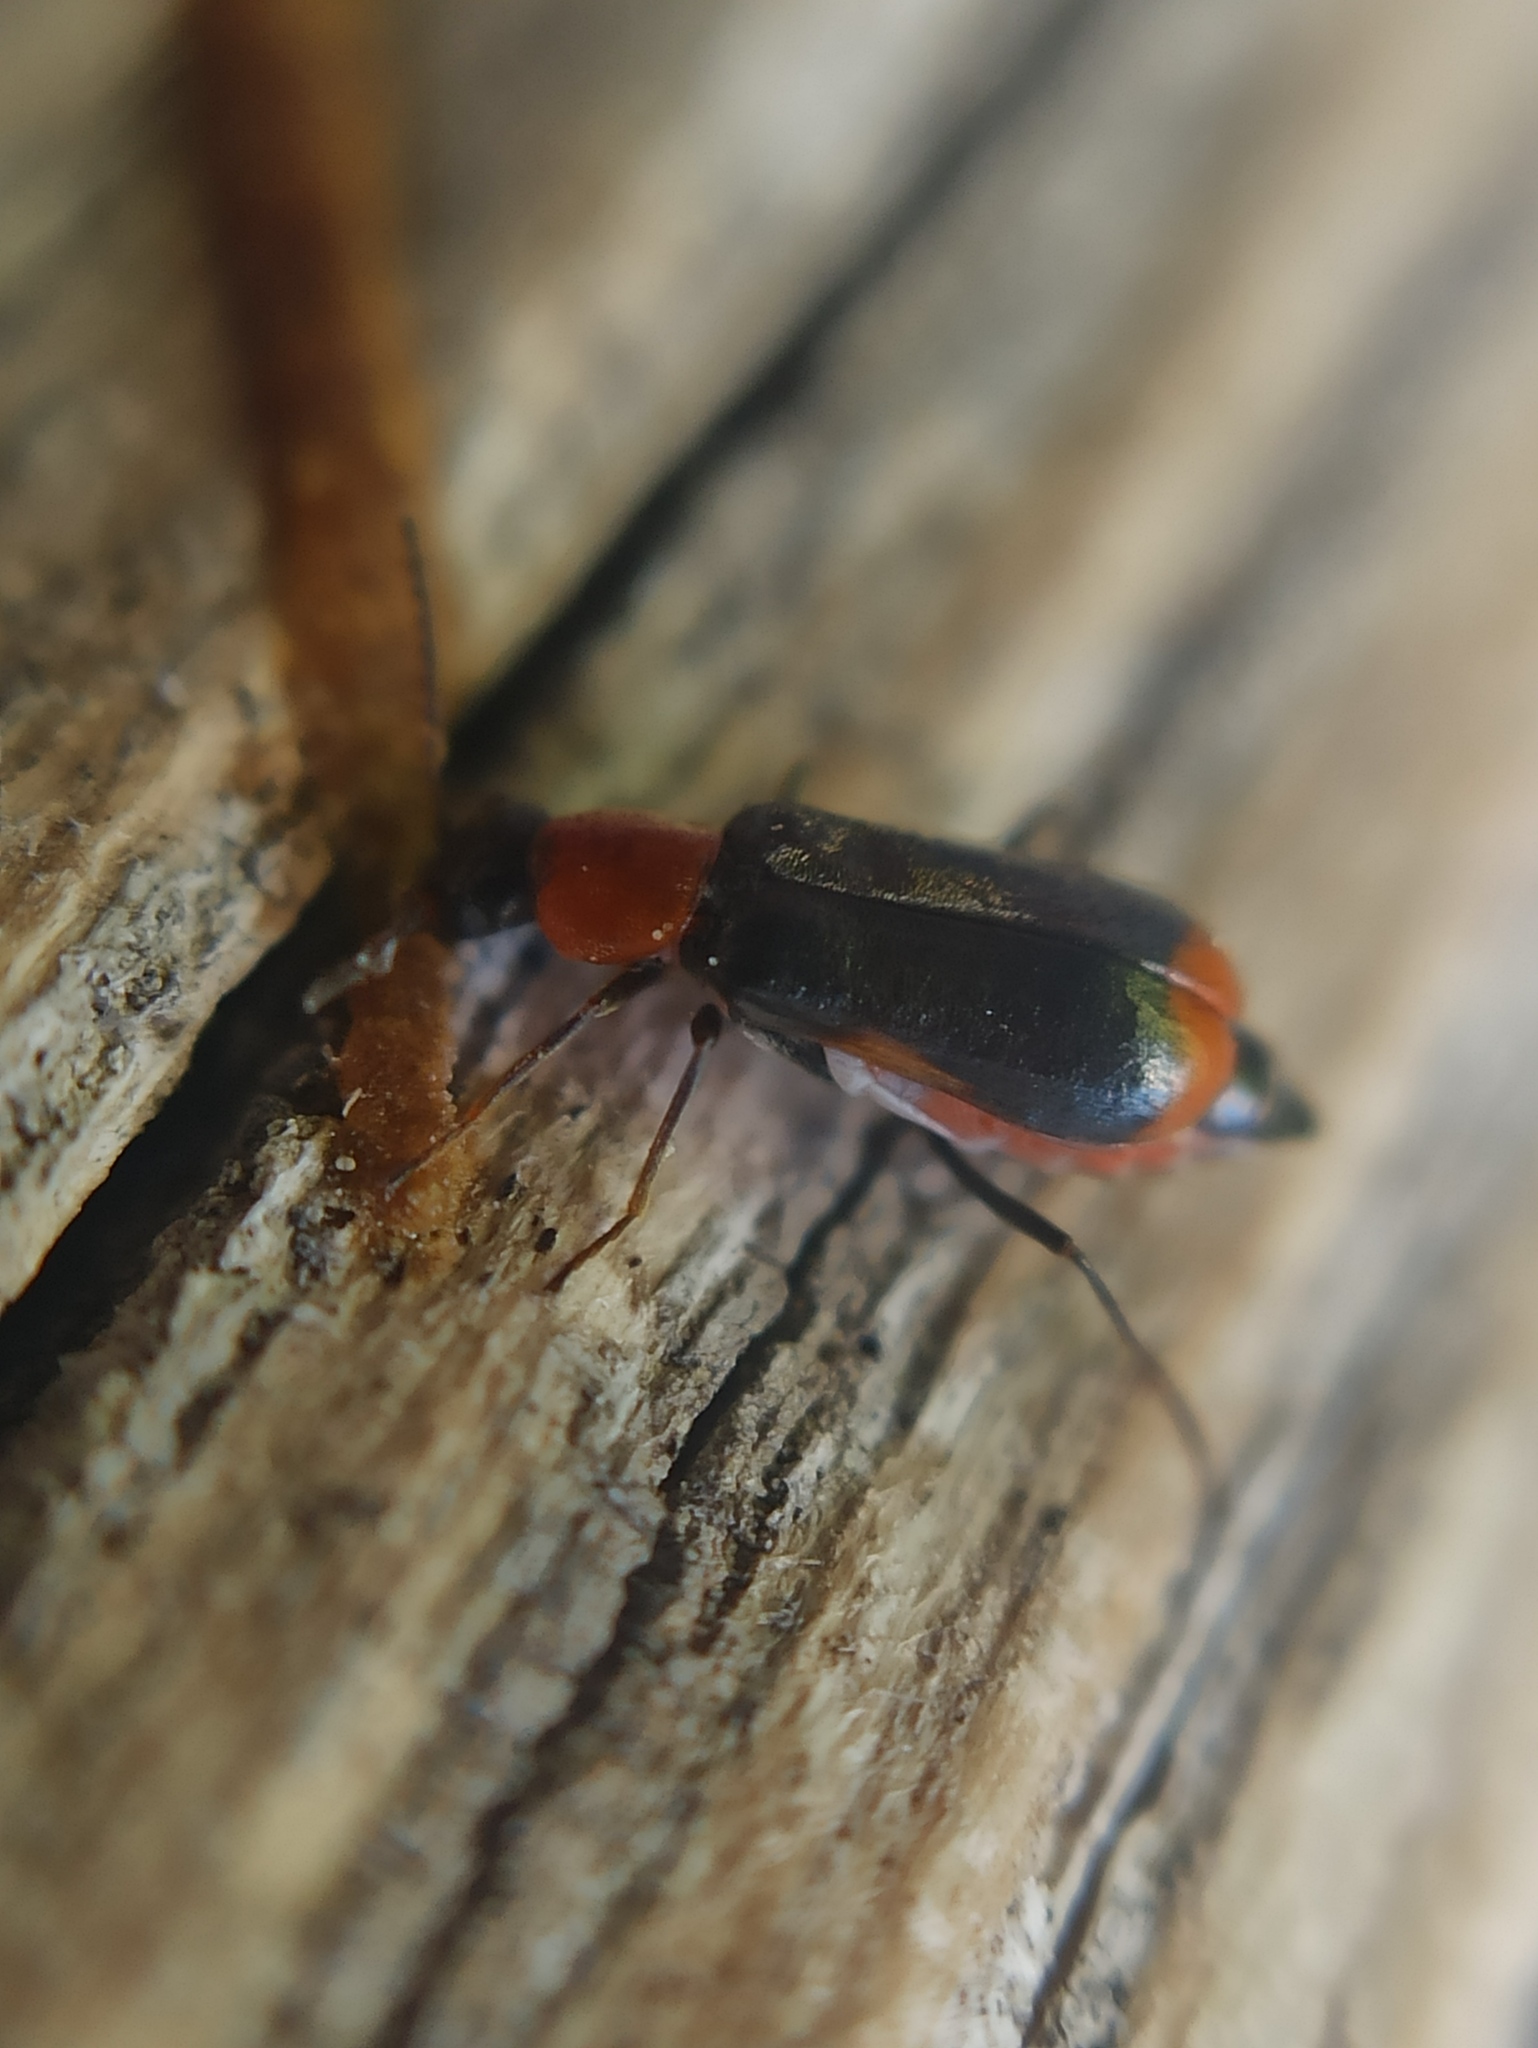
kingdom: Animalia
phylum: Arthropoda
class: Insecta
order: Coleoptera
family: Malachiidae
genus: Attalus
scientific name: Attalus minimus
